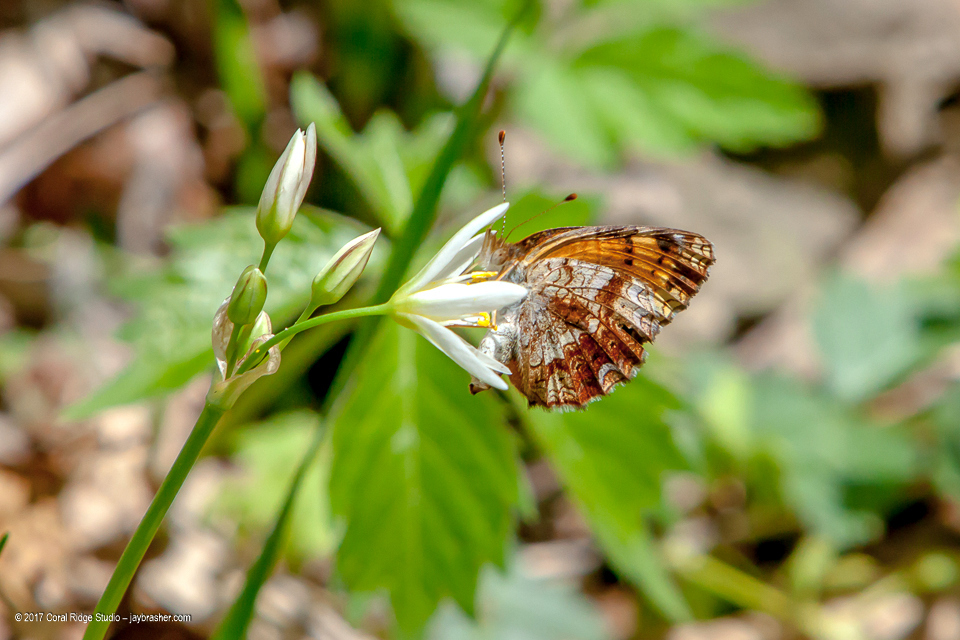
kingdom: Animalia
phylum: Arthropoda
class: Insecta
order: Lepidoptera
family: Nymphalidae
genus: Phyciodes
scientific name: Phyciodes tharos
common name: Pearl crescent
